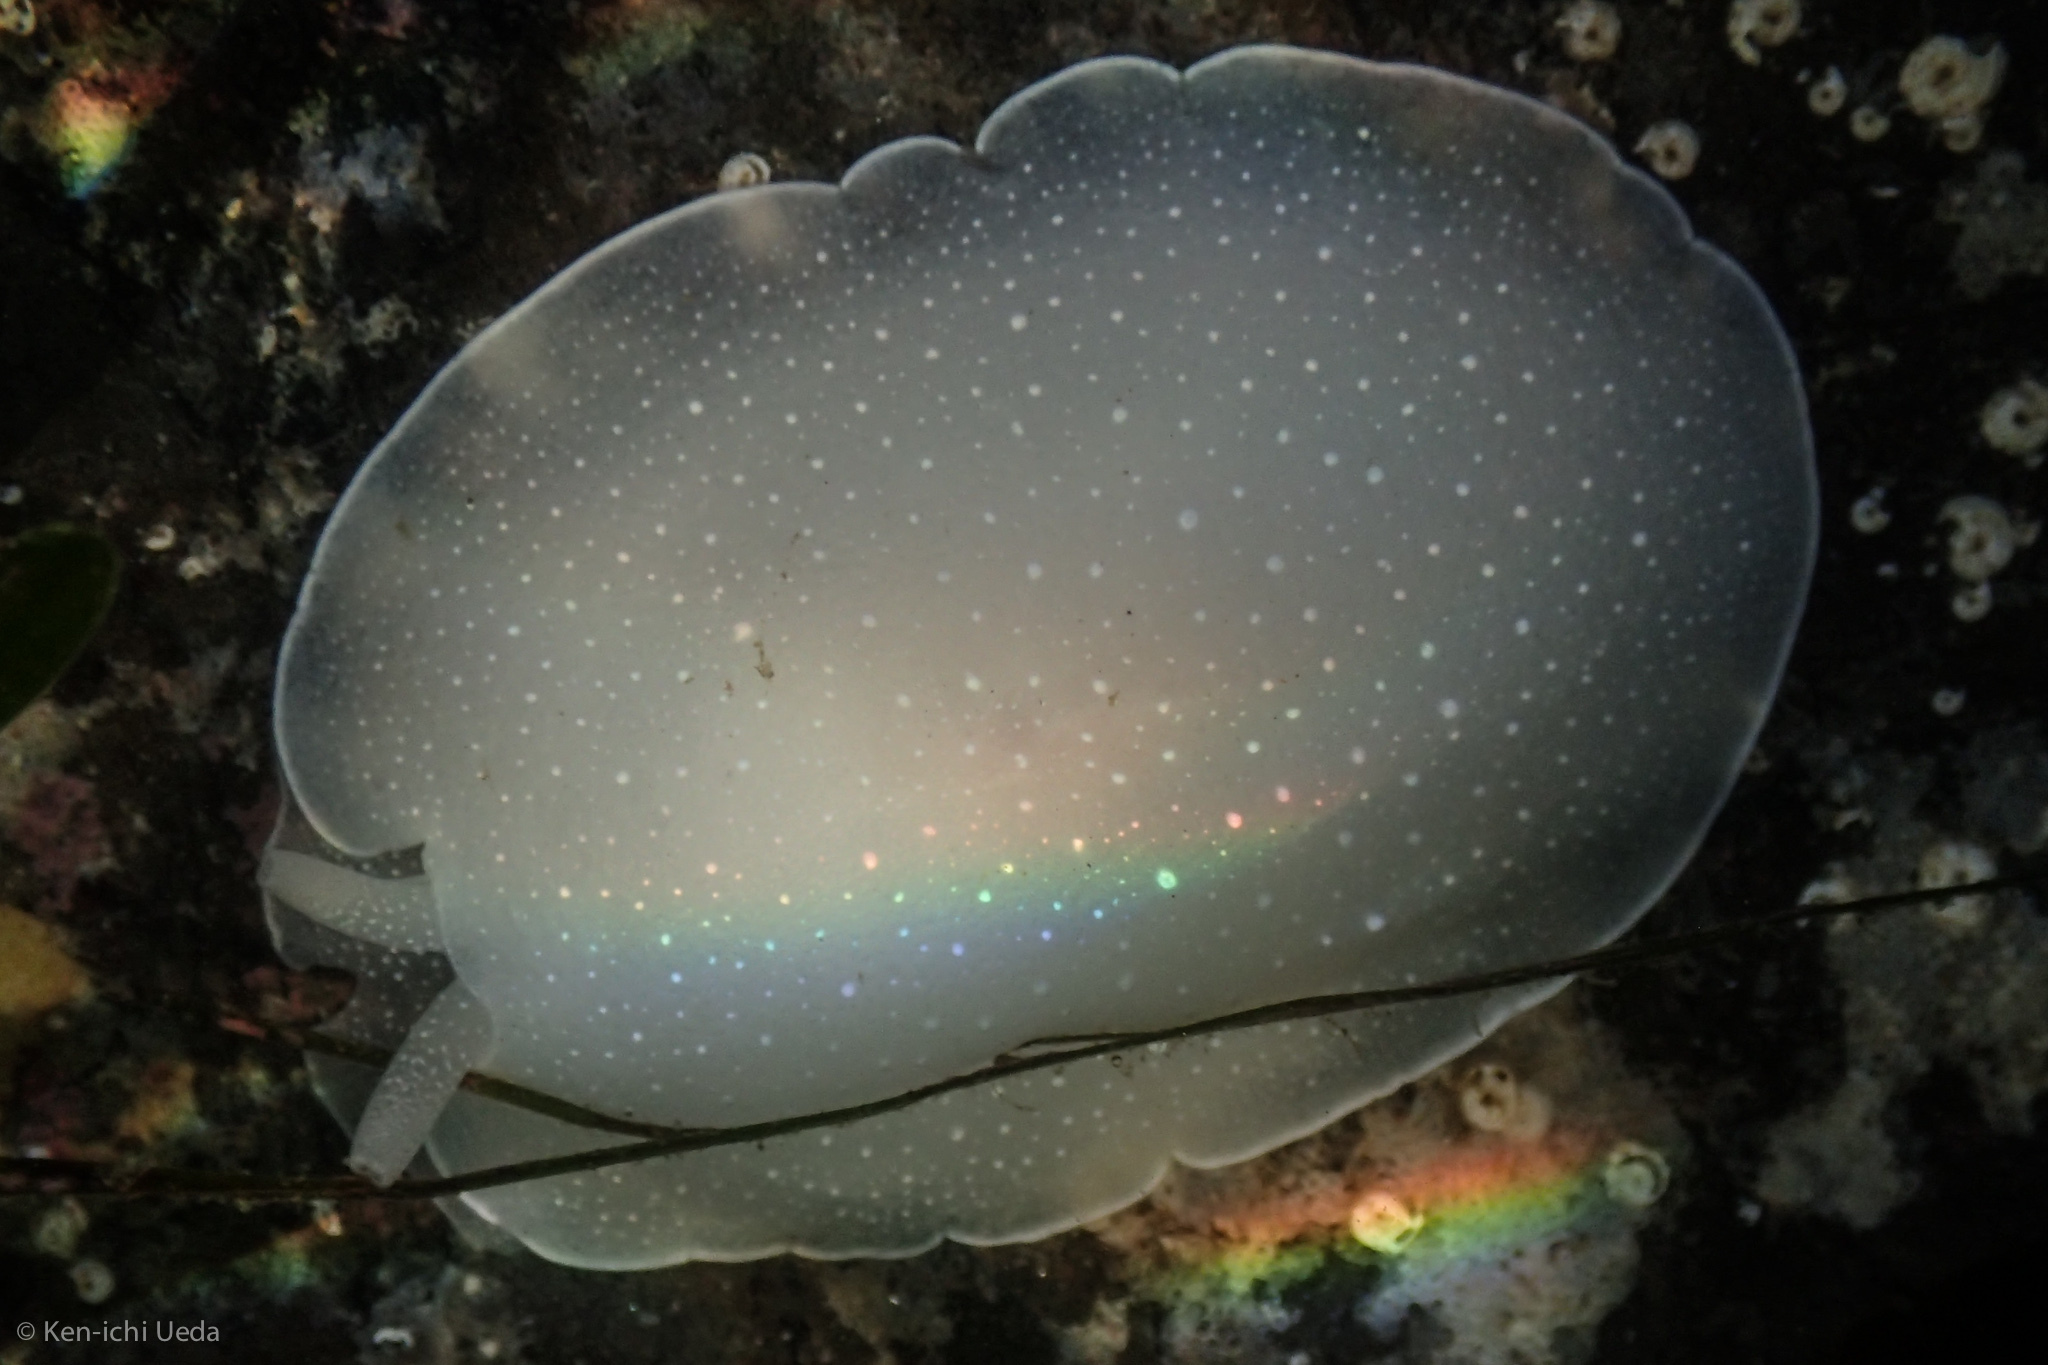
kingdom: Animalia
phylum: Mollusca
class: Gastropoda
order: Pleurobranchida
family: Pleurobranchidae
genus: Boreoberthella
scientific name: Boreoberthella
